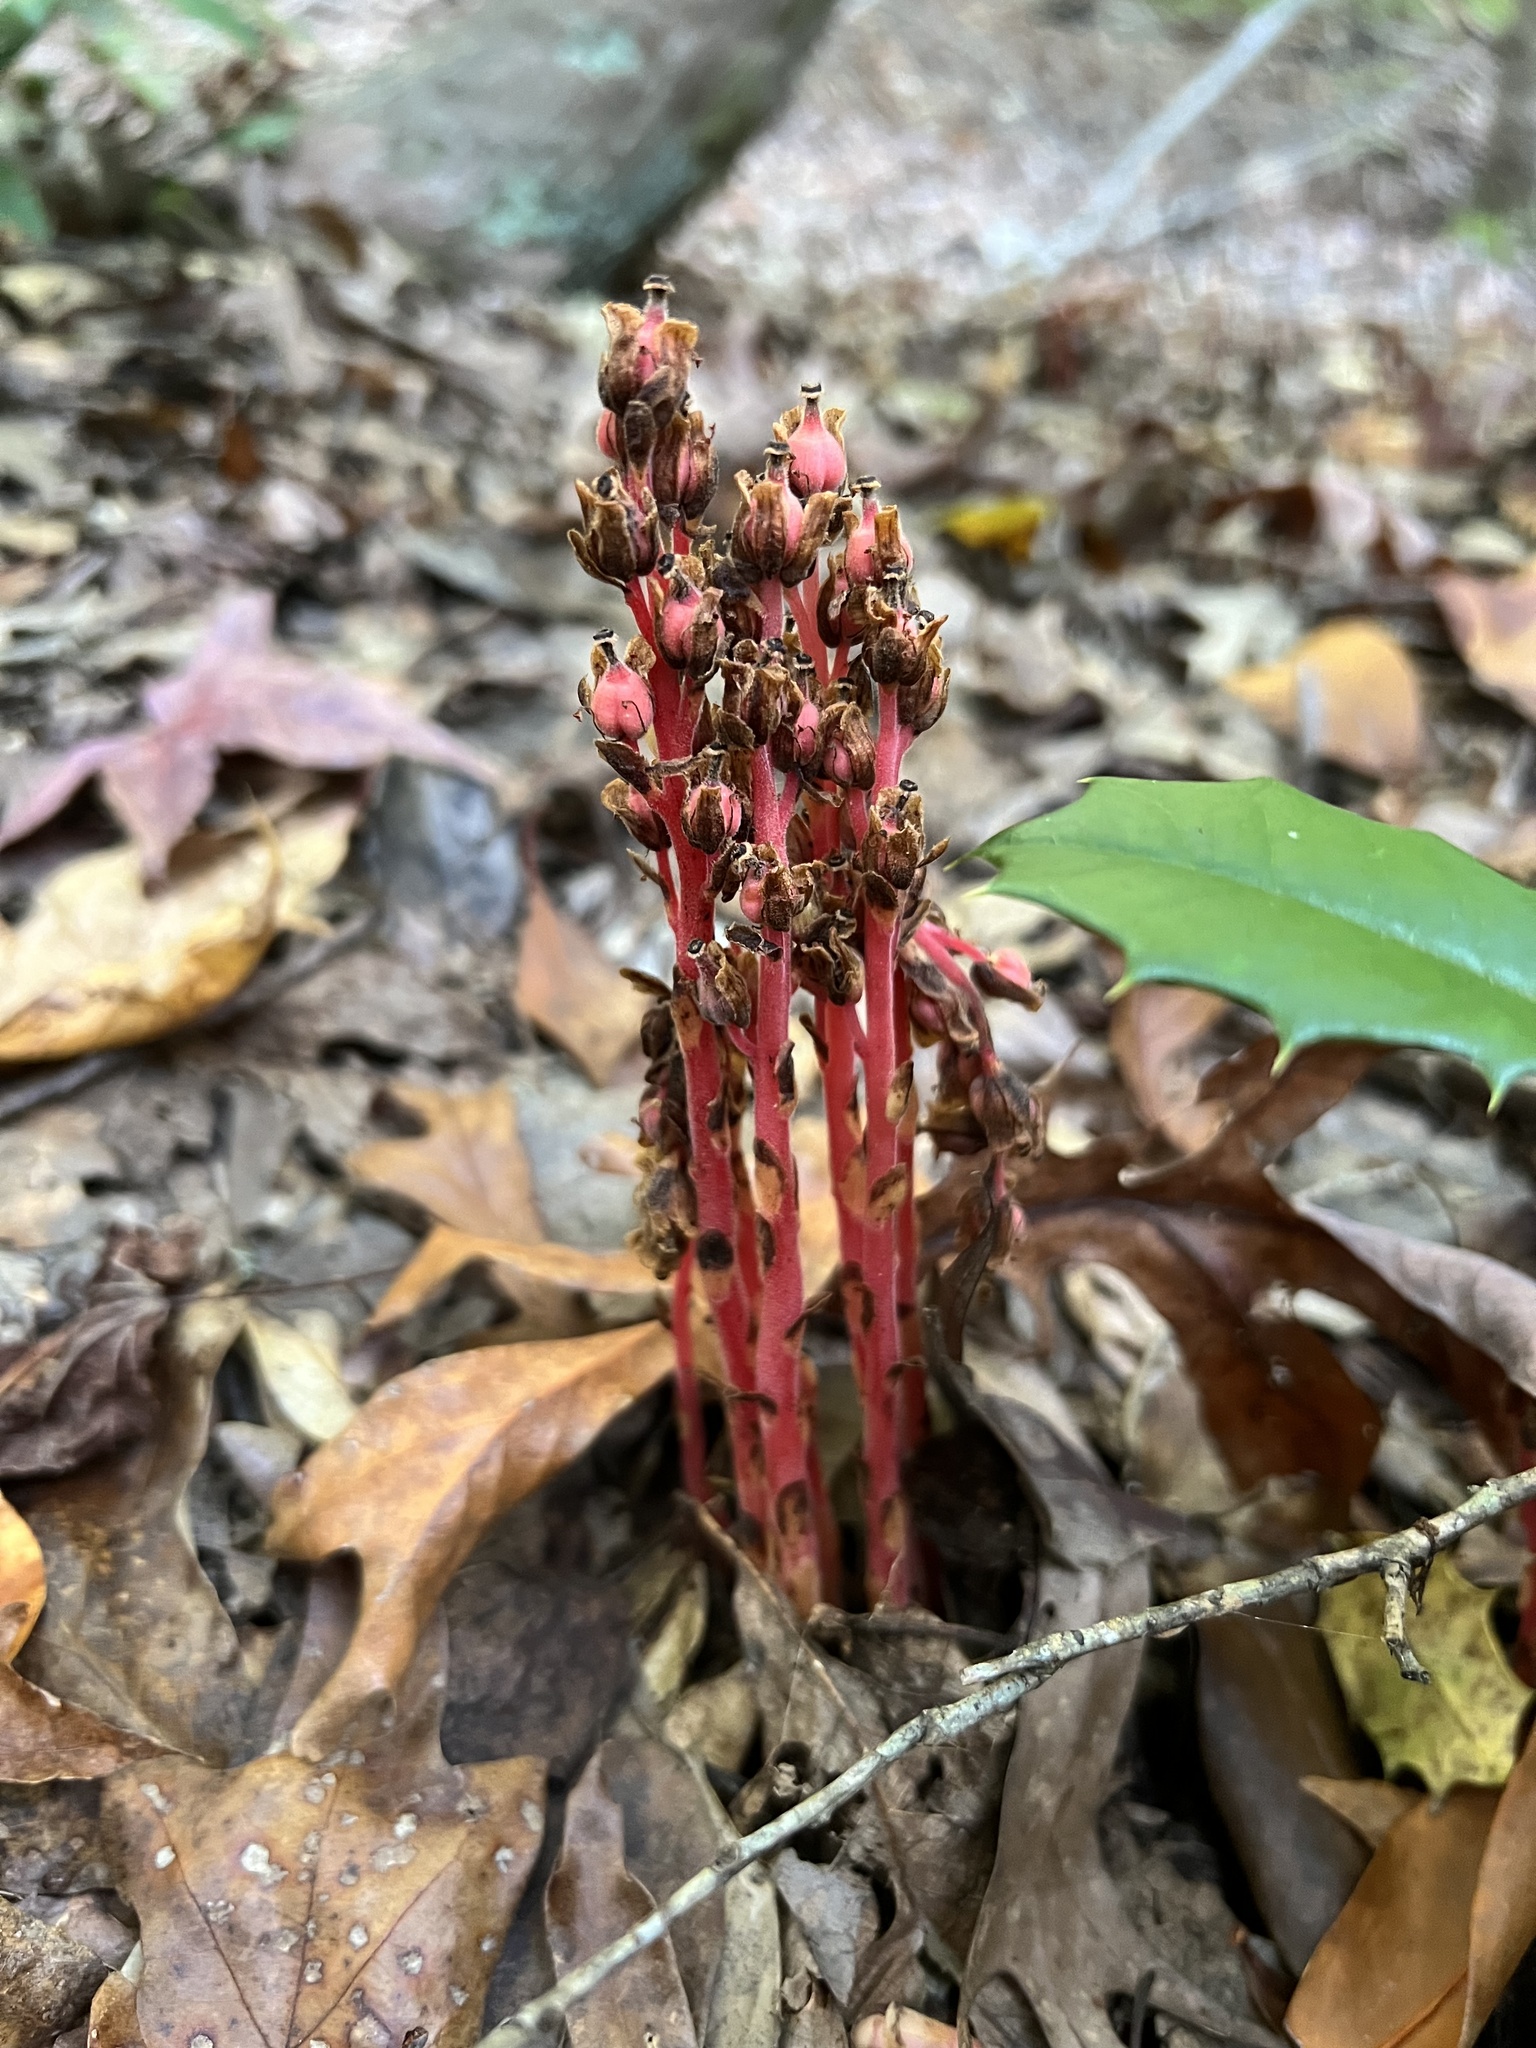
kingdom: Plantae
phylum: Tracheophyta
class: Magnoliopsida
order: Ericales
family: Ericaceae
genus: Hypopitys
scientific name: Hypopitys monotropa
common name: Yellow bird's-nest
